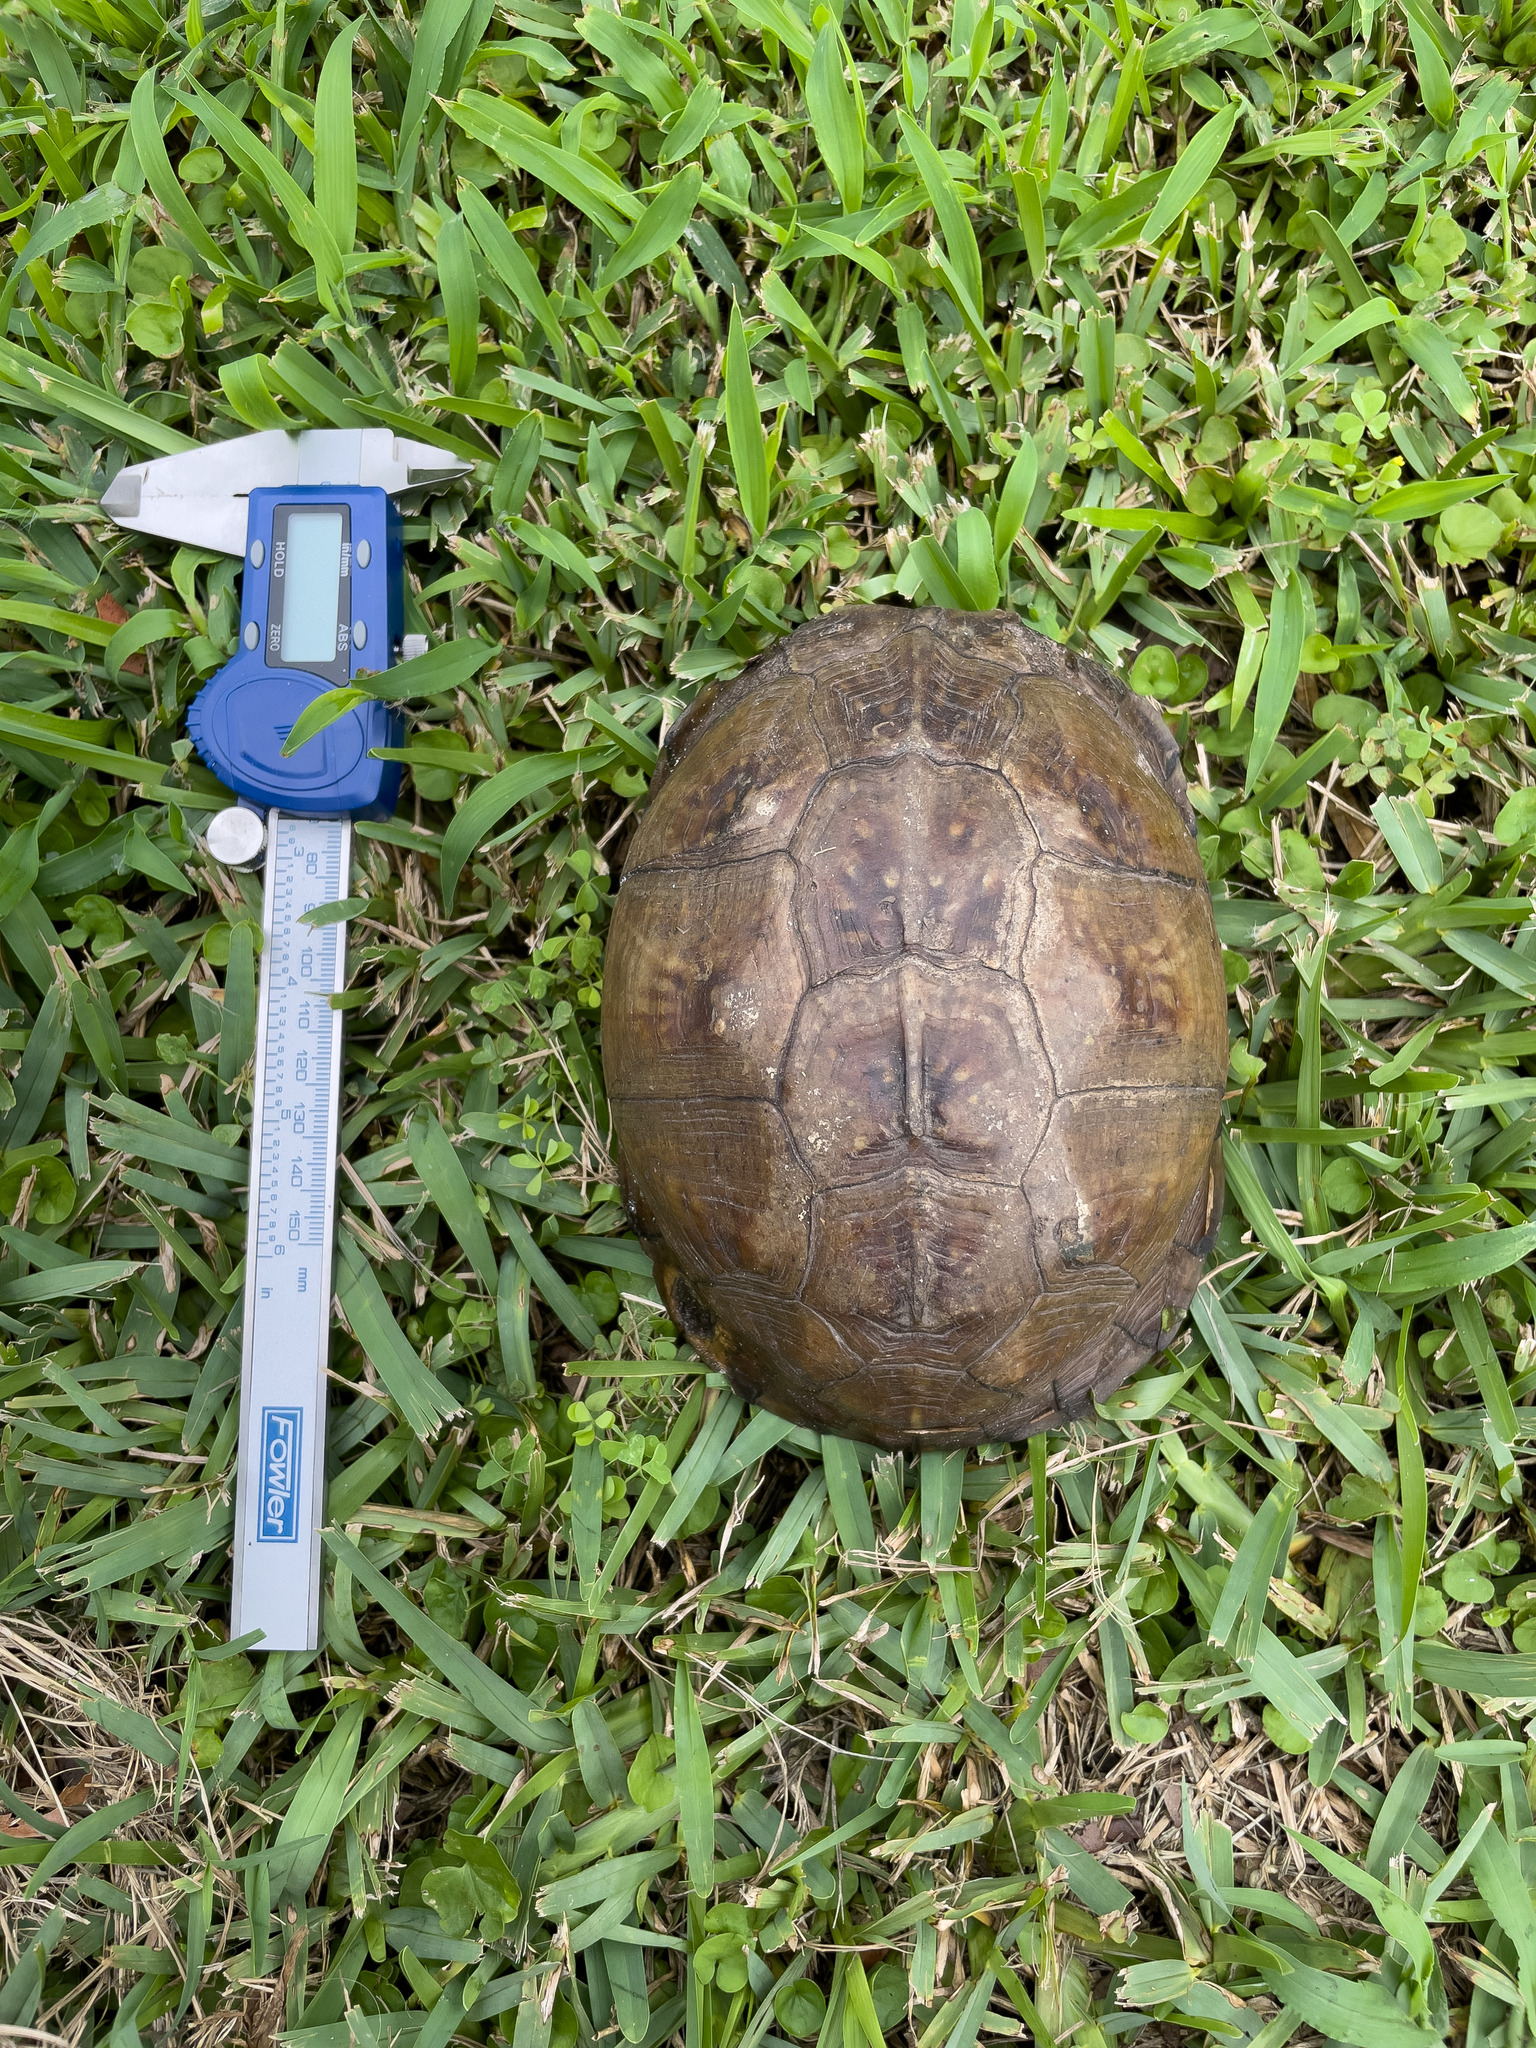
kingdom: Animalia
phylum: Chordata
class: Testudines
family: Emydidae
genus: Terrapene
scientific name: Terrapene carolina
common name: Common box turtle
